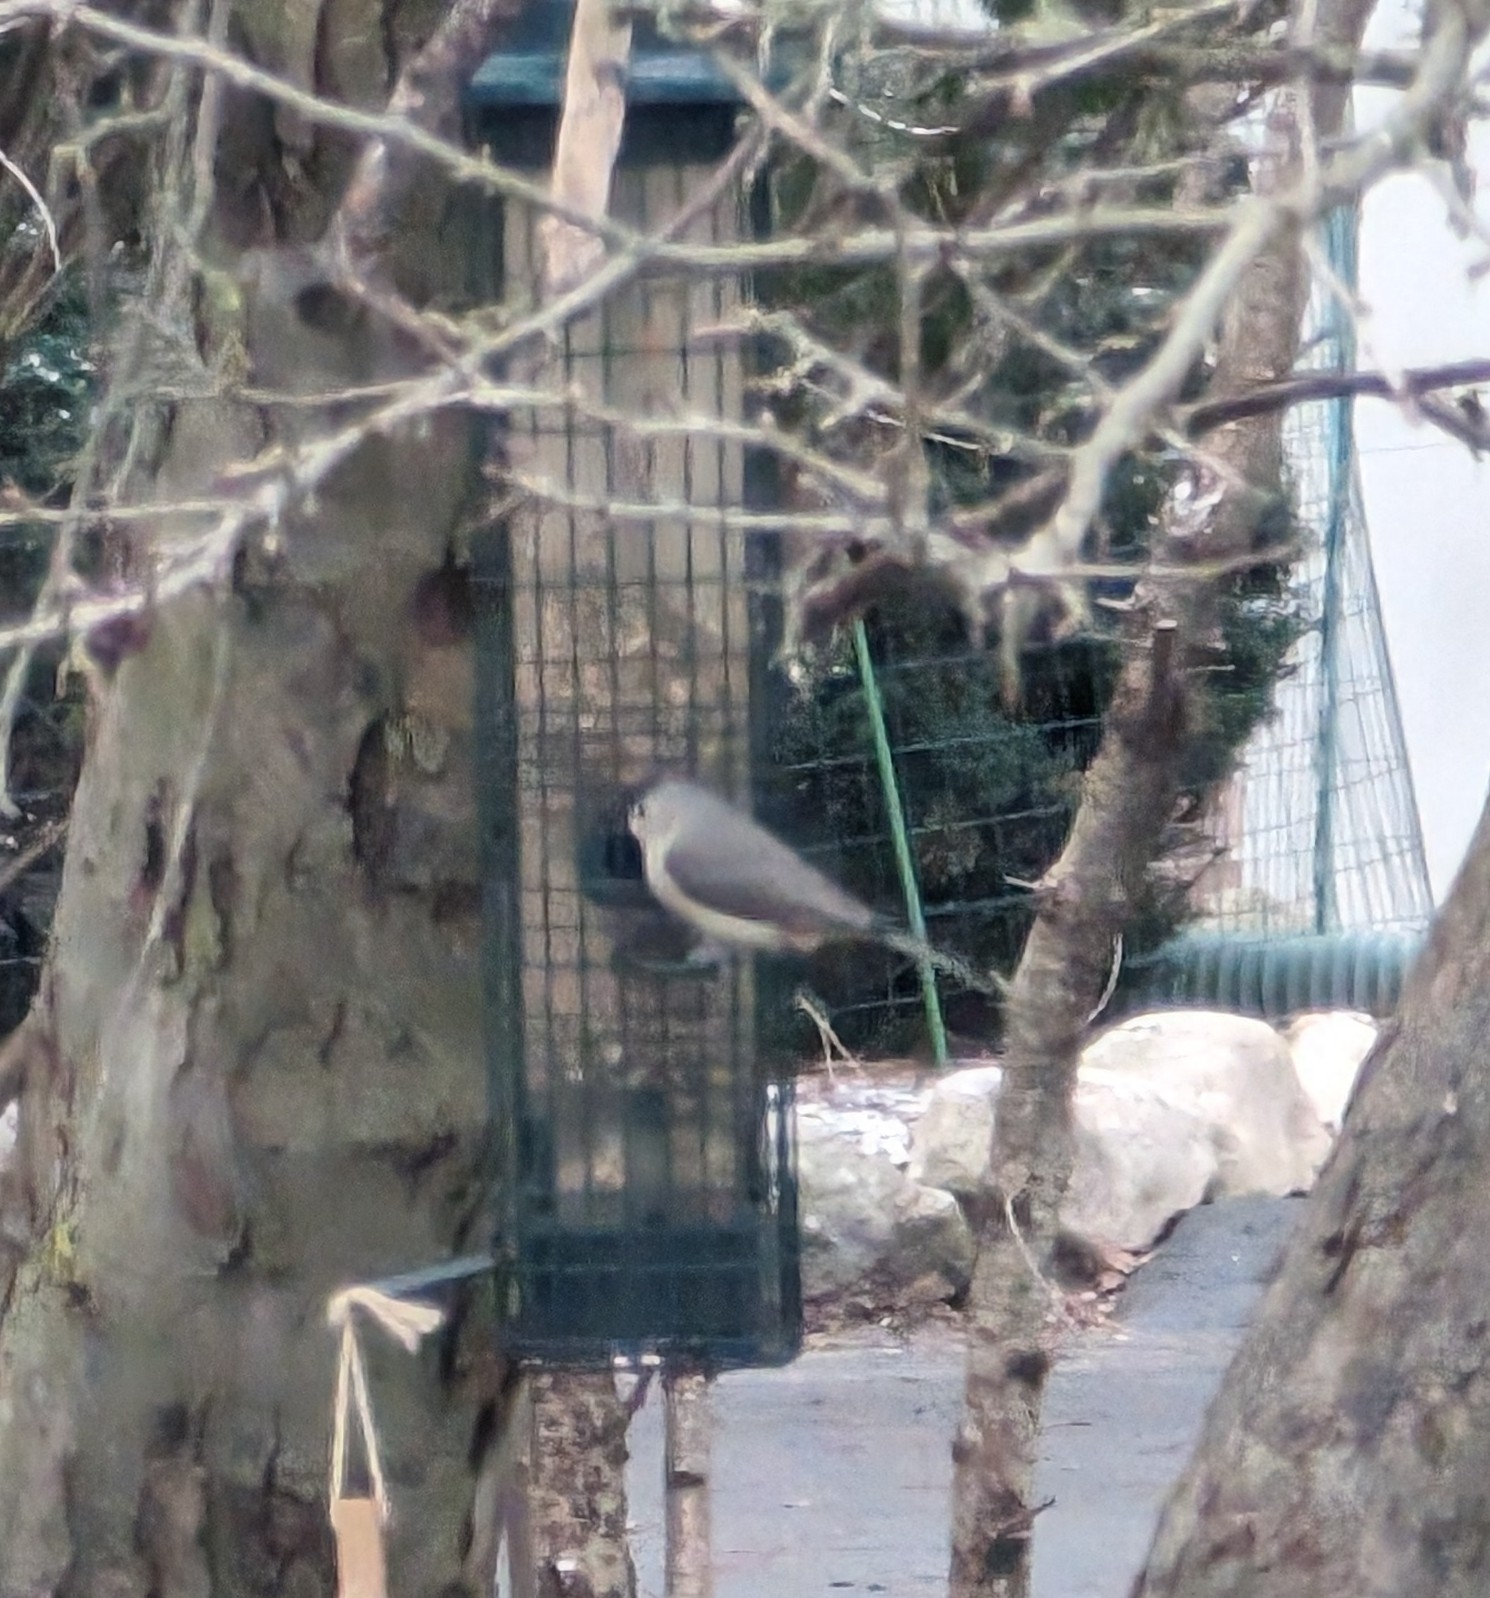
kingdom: Animalia
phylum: Chordata
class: Aves
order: Passeriformes
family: Paridae
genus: Baeolophus
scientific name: Baeolophus bicolor
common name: Tufted titmouse
